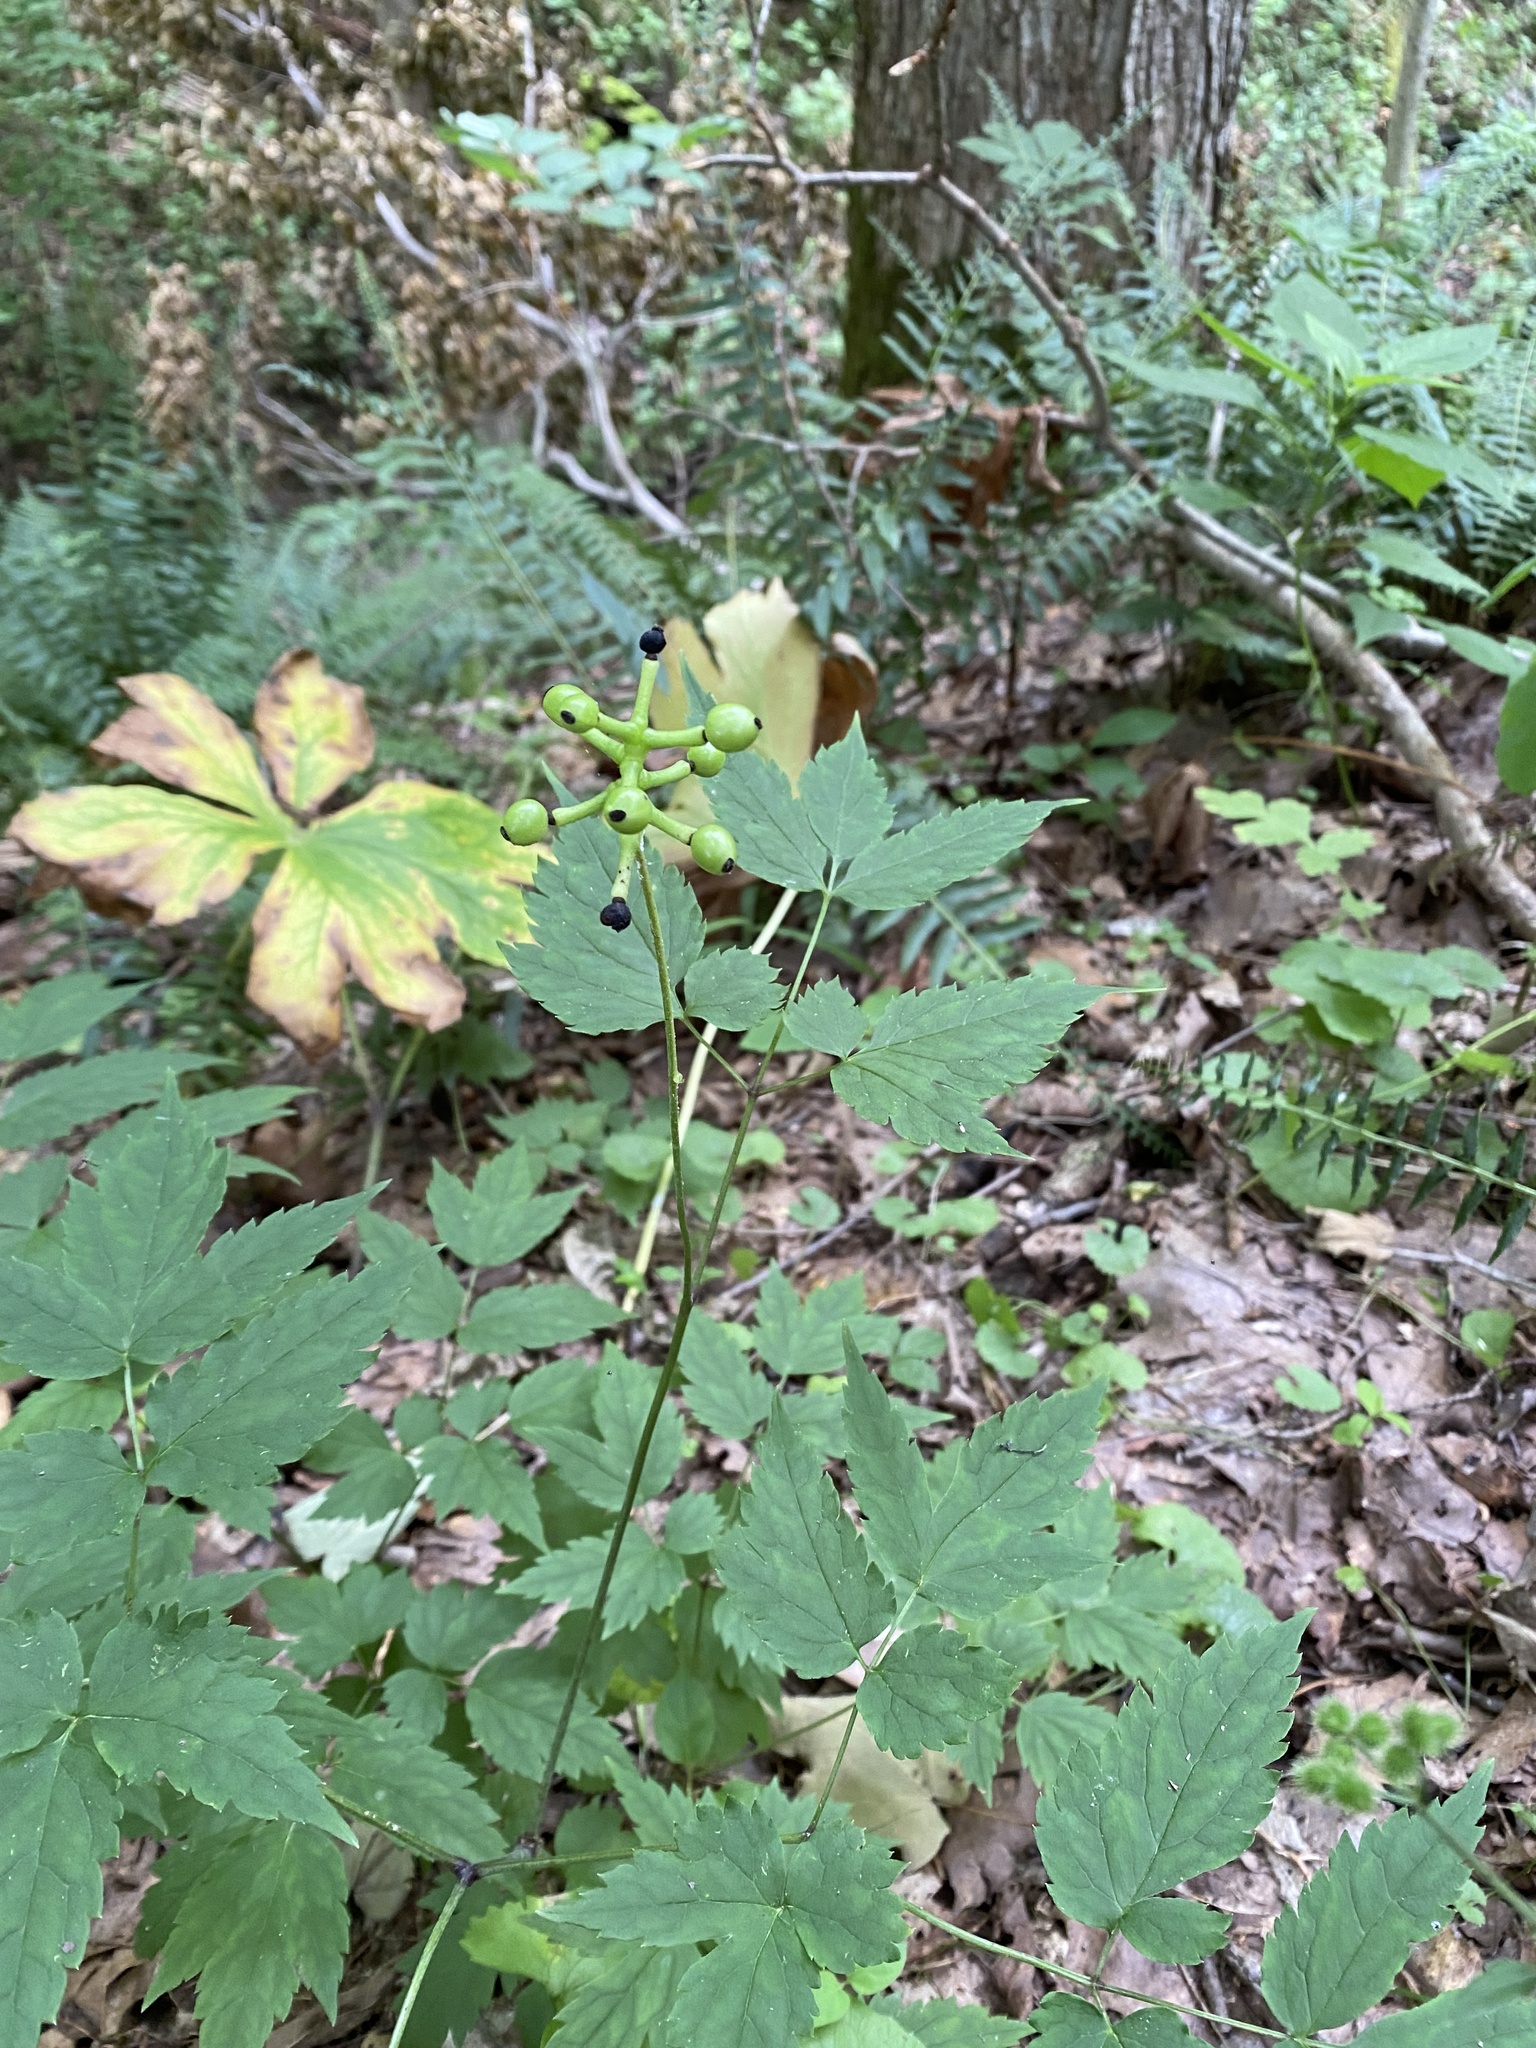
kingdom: Plantae
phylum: Tracheophyta
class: Magnoliopsida
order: Ranunculales
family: Ranunculaceae
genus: Actaea
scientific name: Actaea pachypoda
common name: Doll's-eyes
